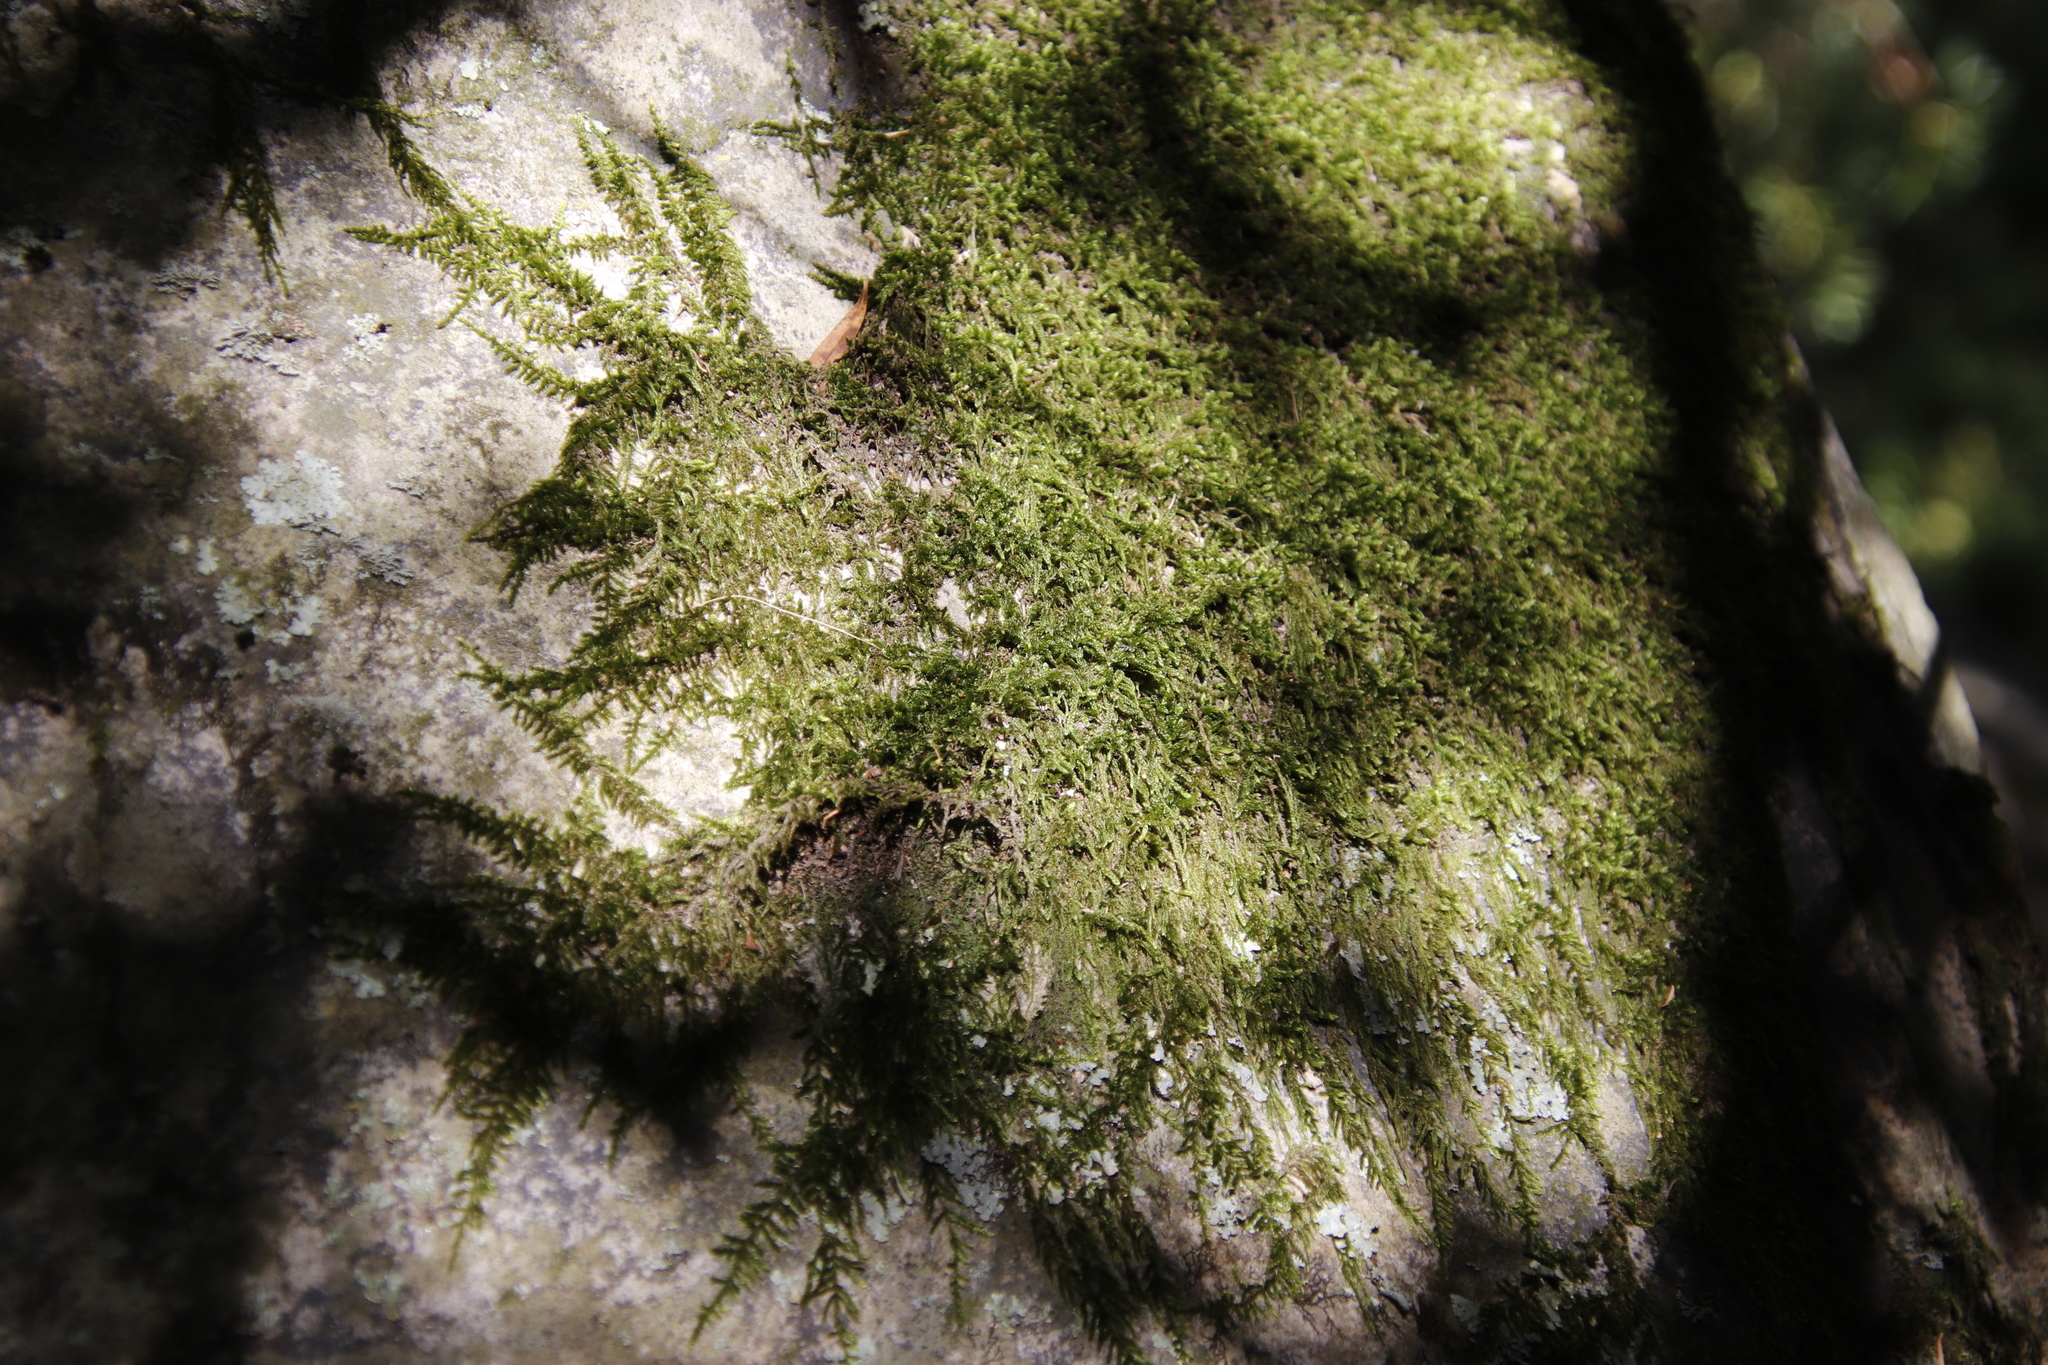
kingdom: Plantae
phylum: Bryophyta
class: Bryopsida
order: Hypnales
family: Hypnaceae
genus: Hypnum
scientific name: Hypnum cupressiforme
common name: Cypress-leaved plait-moss
